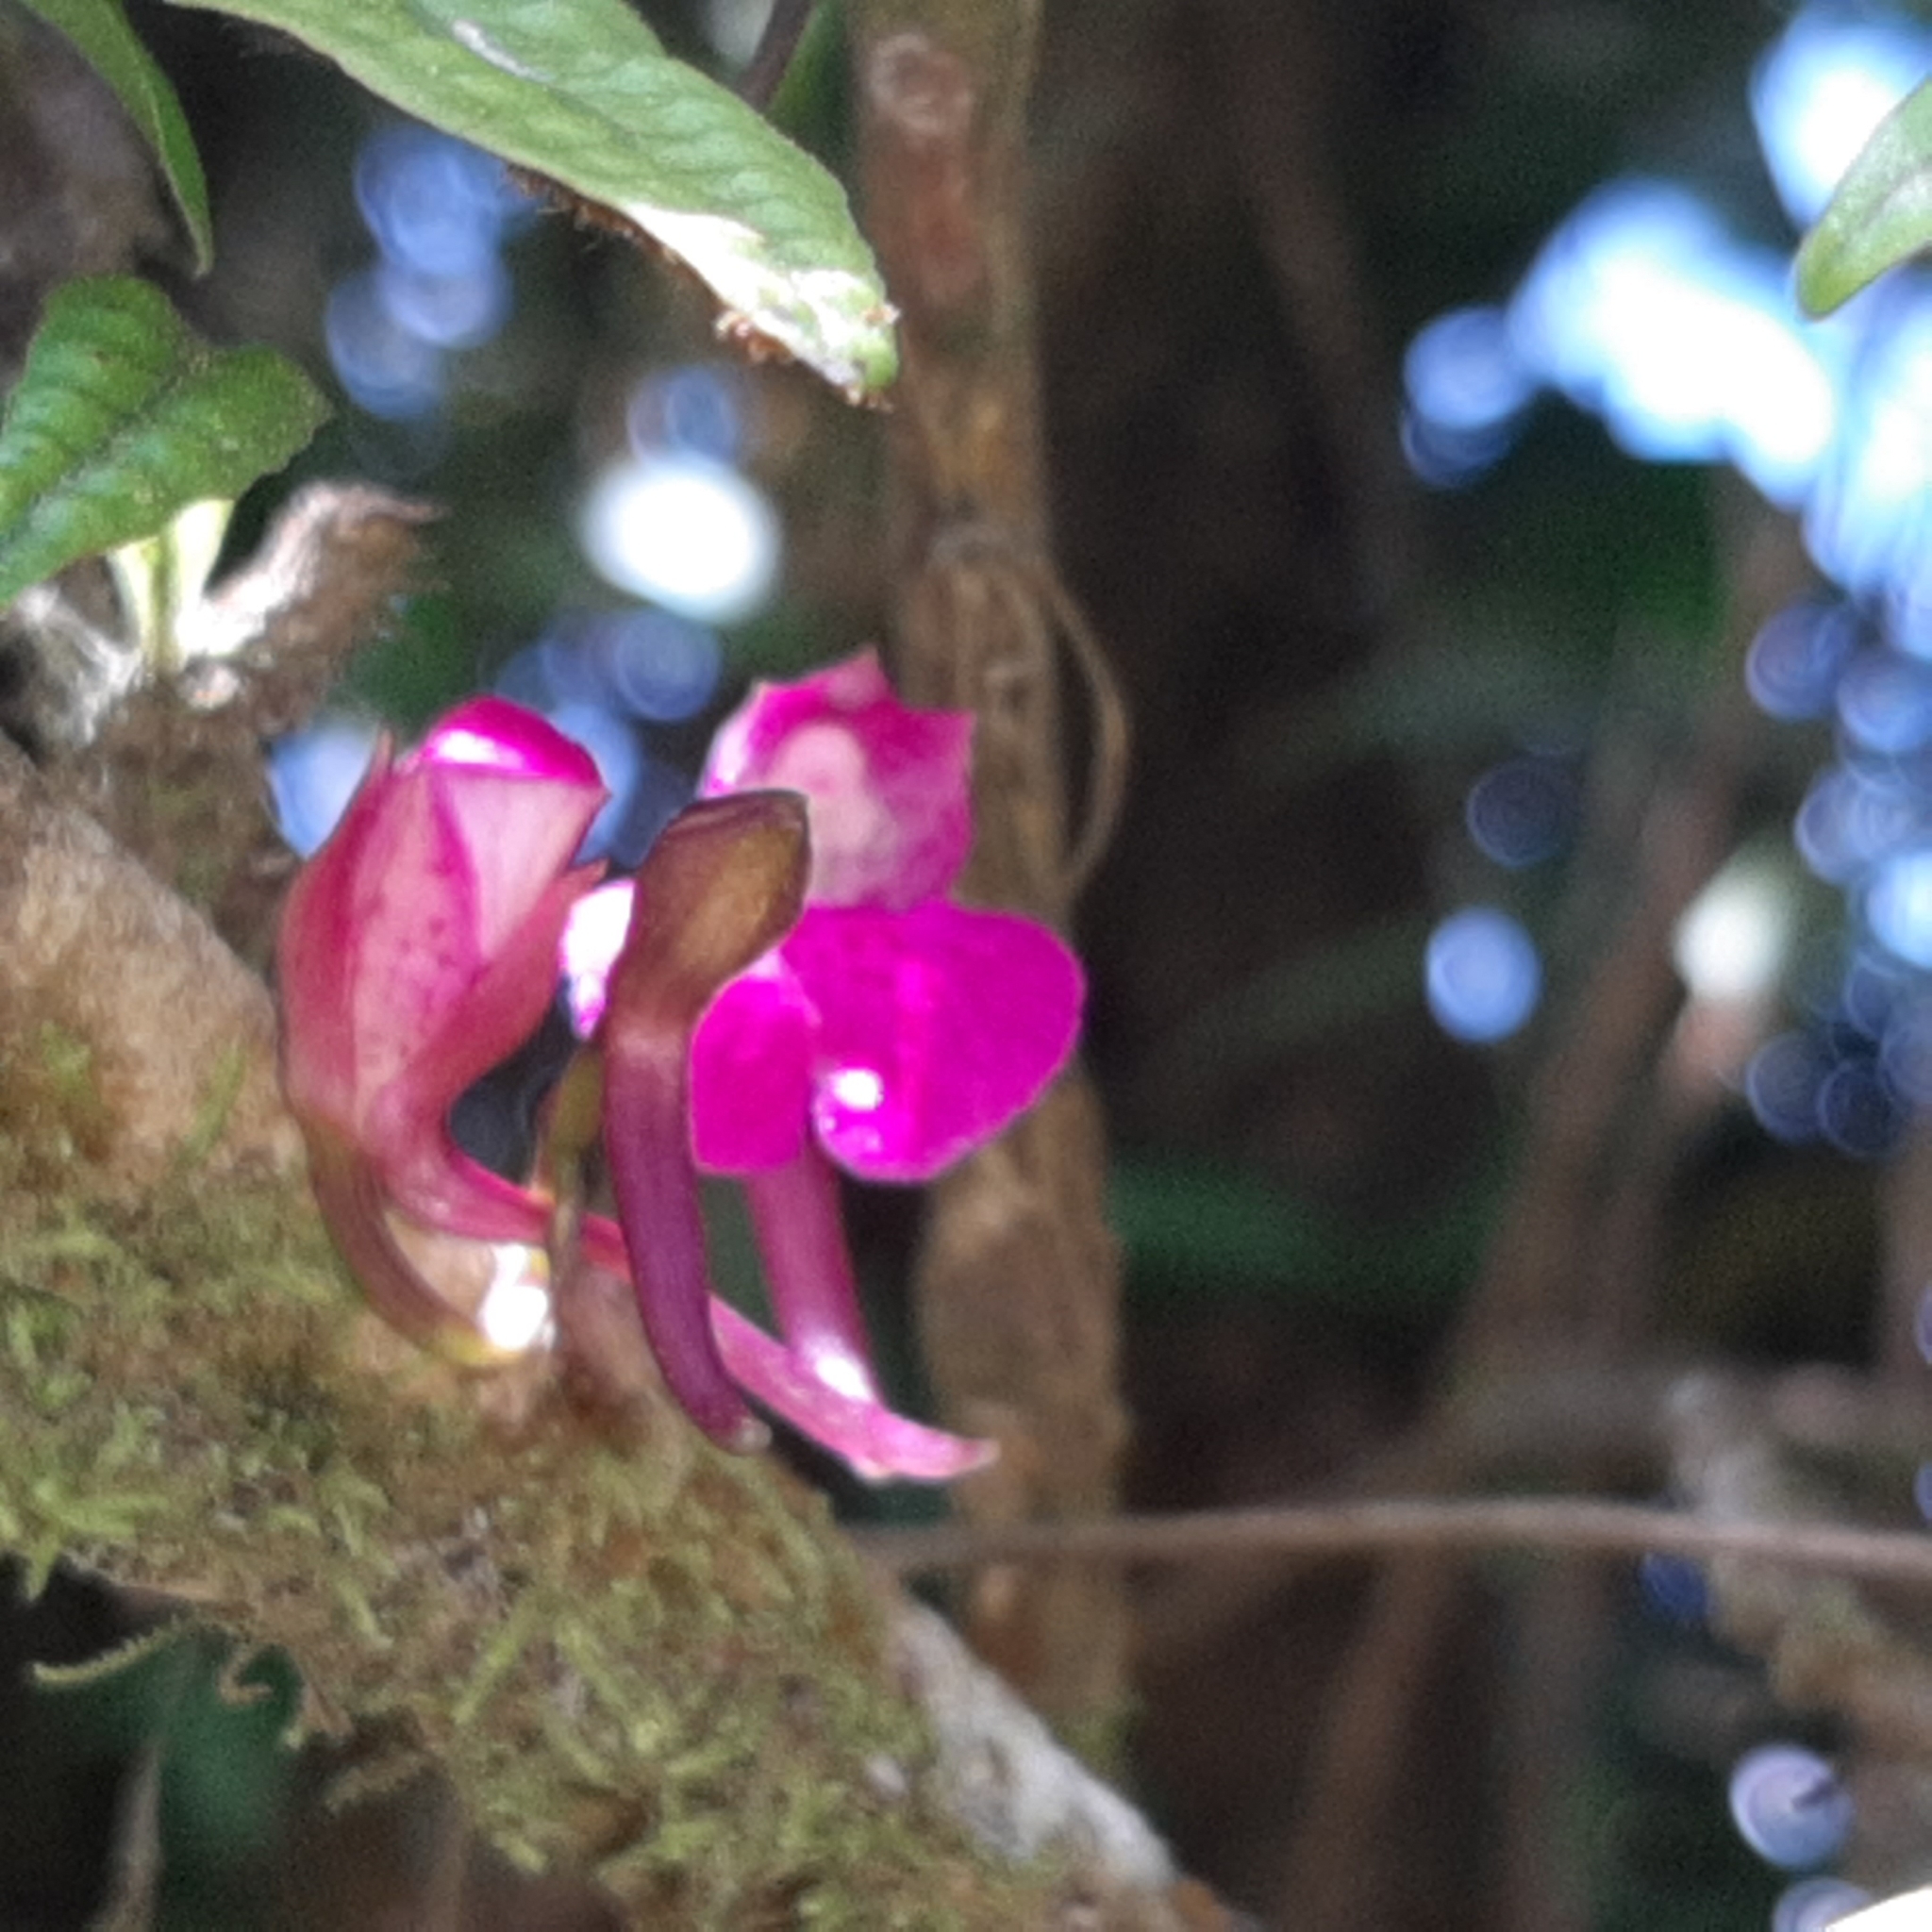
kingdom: Plantae
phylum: Tracheophyta
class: Liliopsida
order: Asparagales
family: Orchidaceae
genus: Comparettia
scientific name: Comparettia falcata
